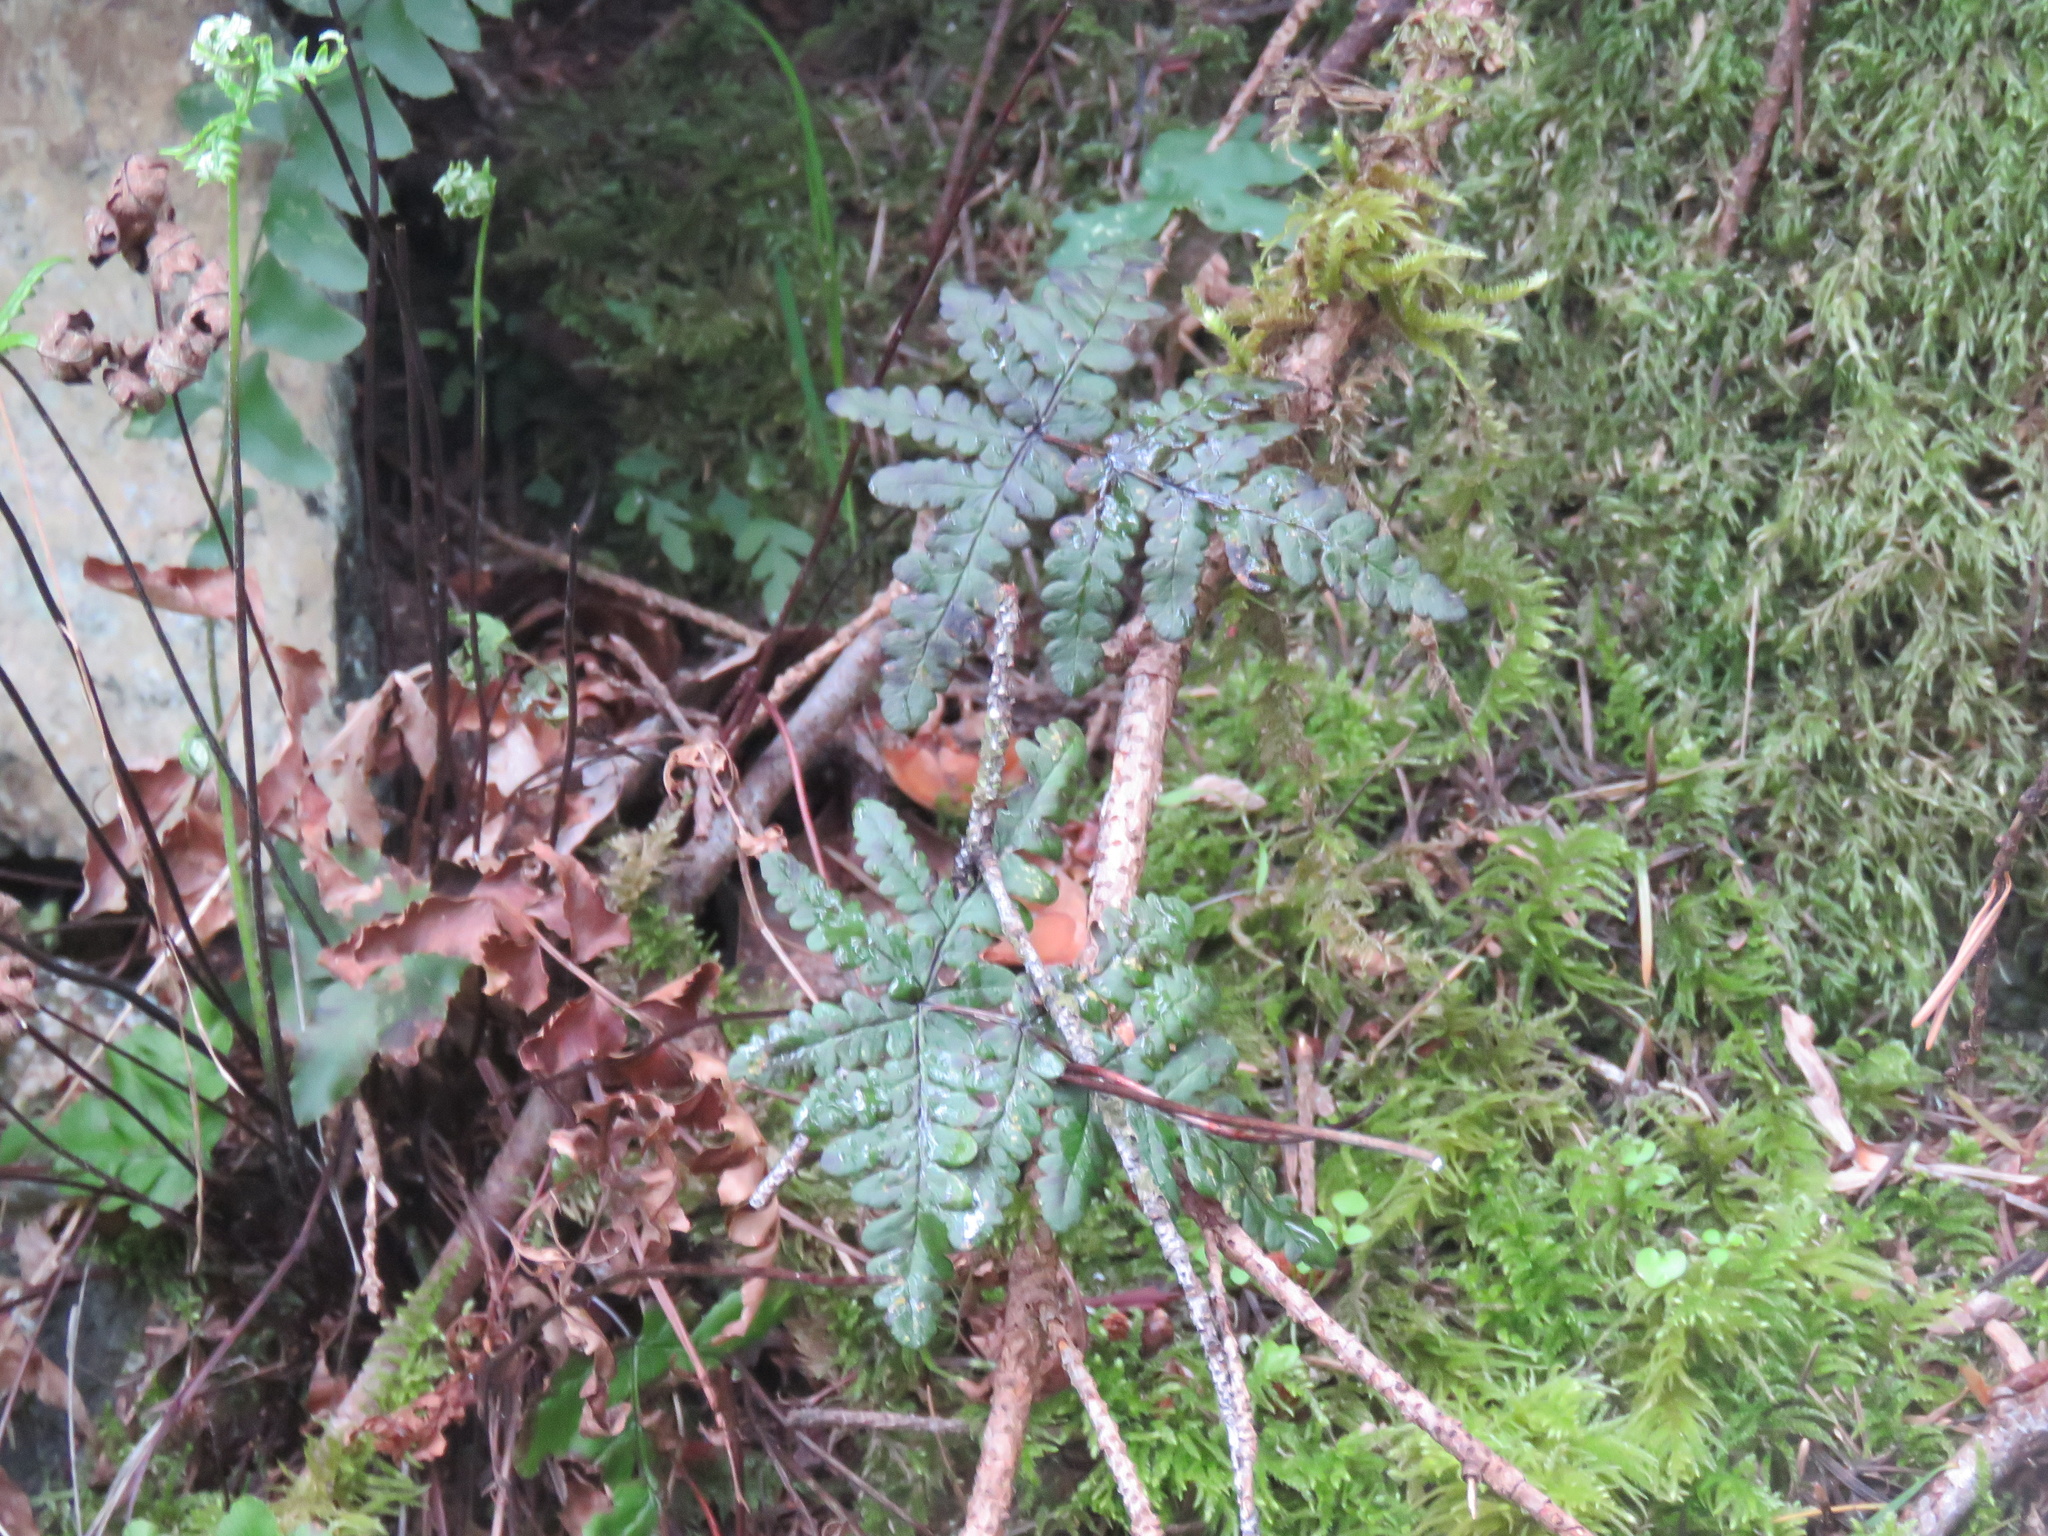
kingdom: Plantae
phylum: Tracheophyta
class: Polypodiopsida
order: Polypodiales
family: Pteridaceae
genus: Pentagramma
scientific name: Pentagramma triangularis
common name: Gold fern
